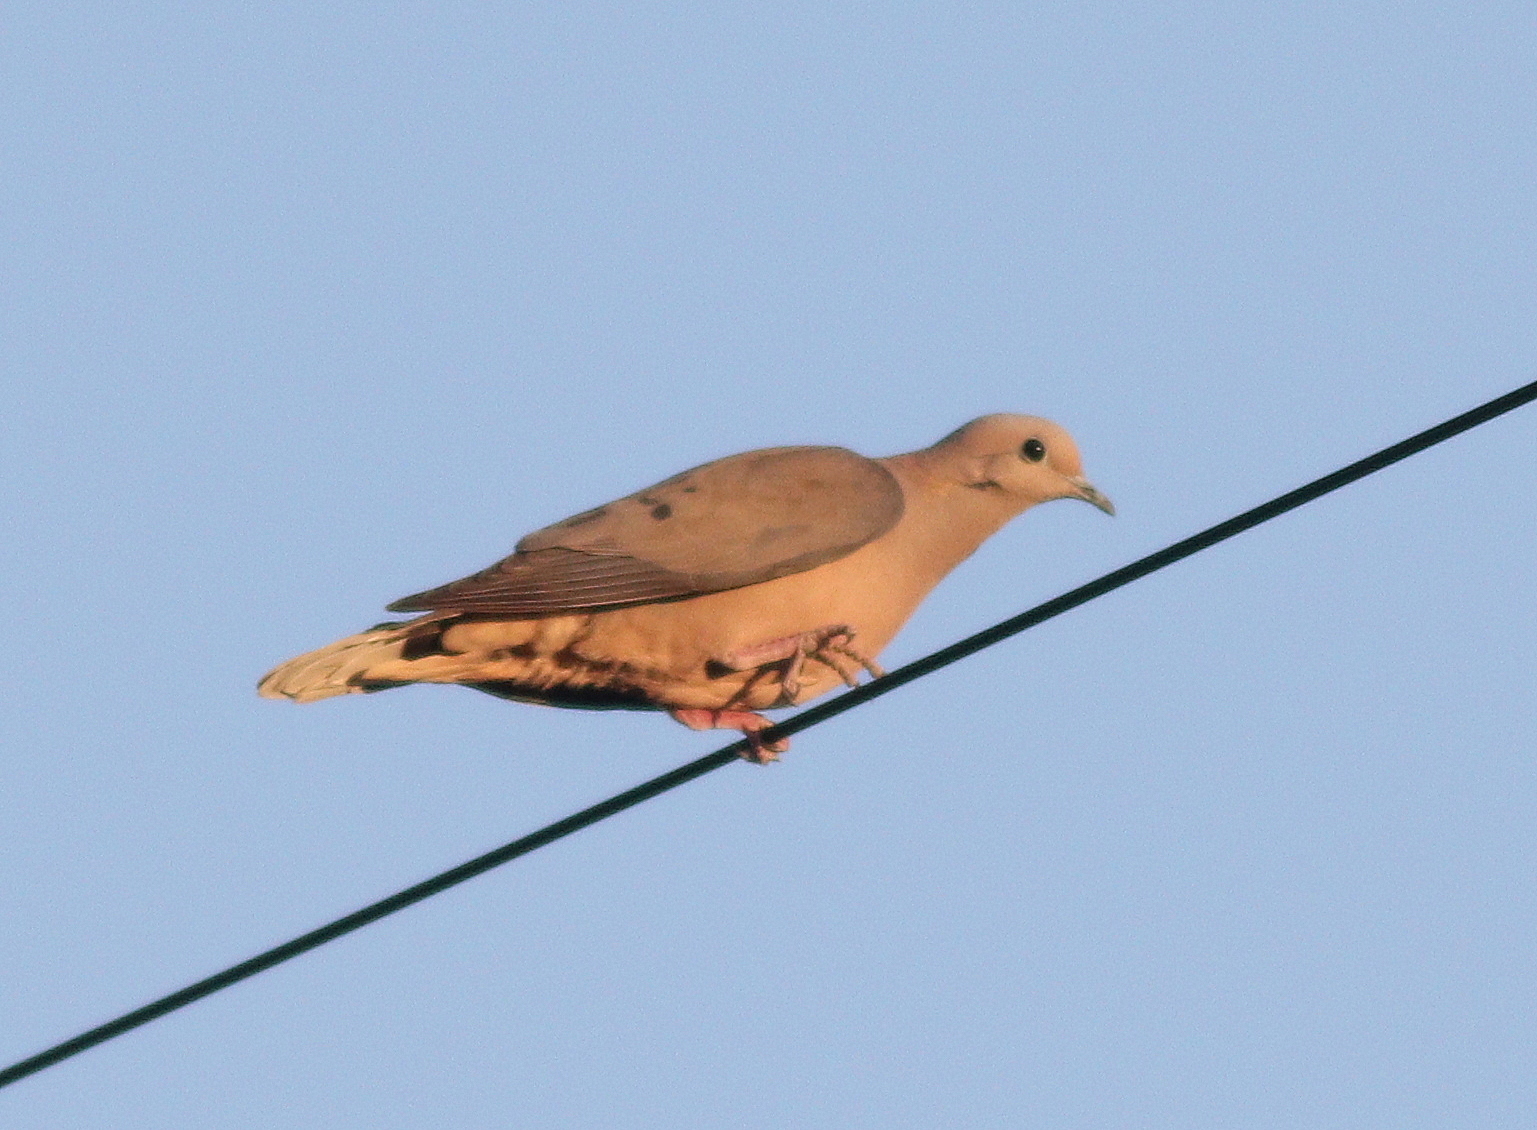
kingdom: Animalia
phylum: Chordata
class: Aves
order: Columbiformes
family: Columbidae
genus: Zenaida
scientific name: Zenaida auriculata
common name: Eared dove
